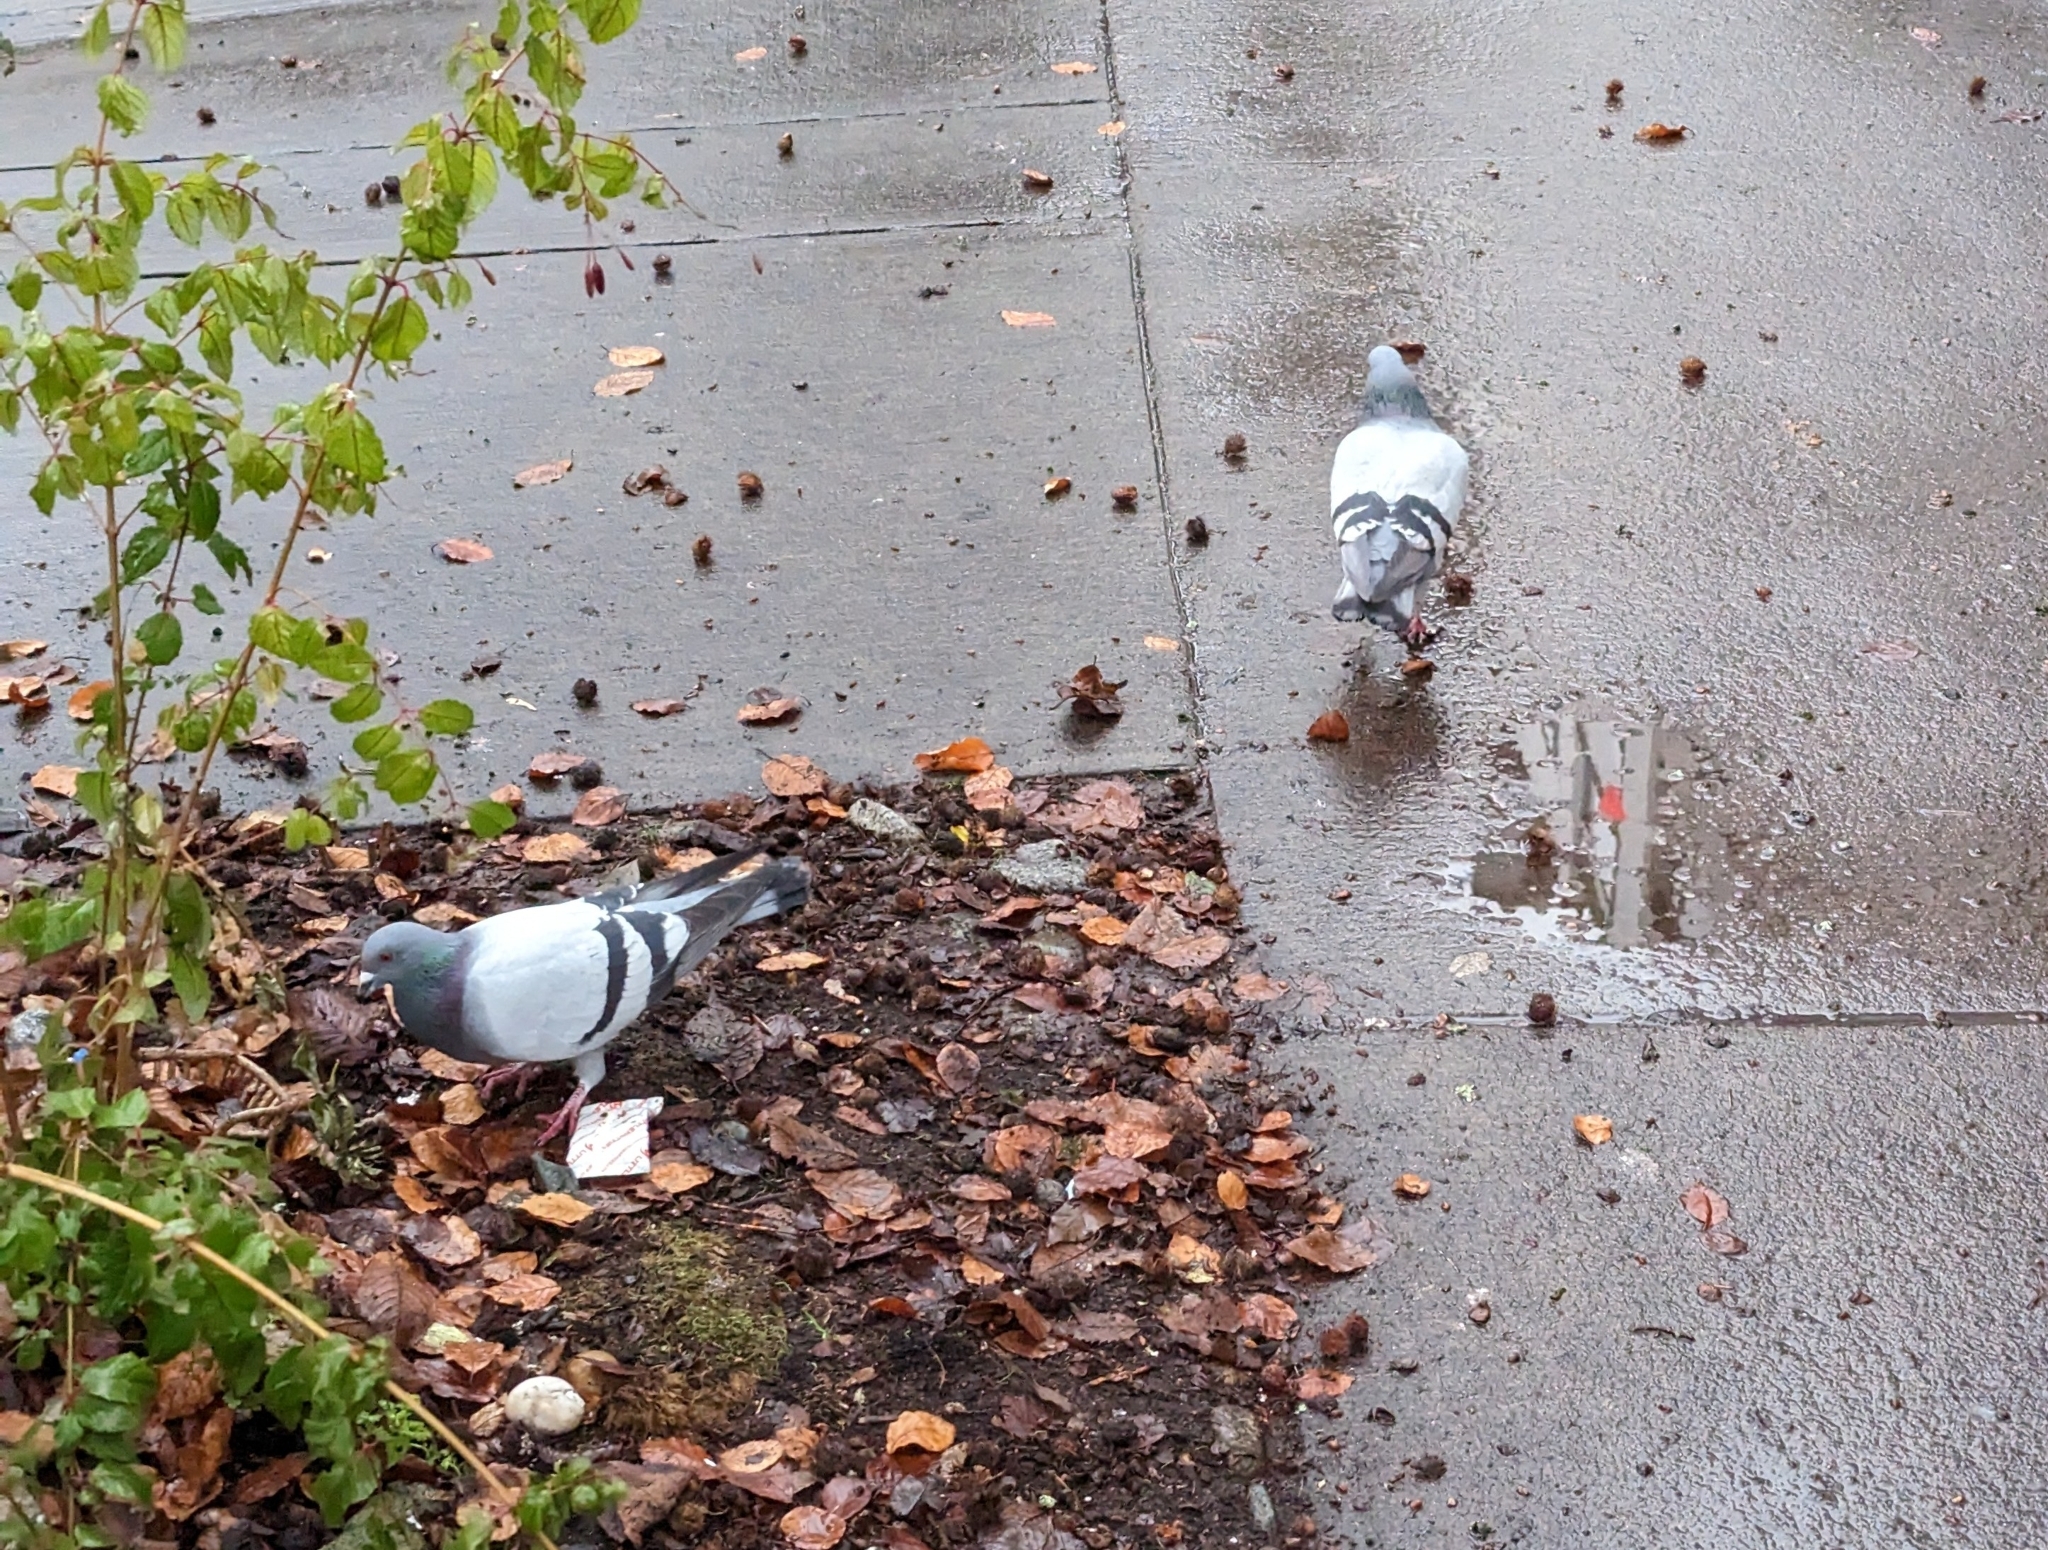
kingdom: Animalia
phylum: Chordata
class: Aves
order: Columbiformes
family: Columbidae
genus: Columba
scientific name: Columba livia
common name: Rock pigeon
